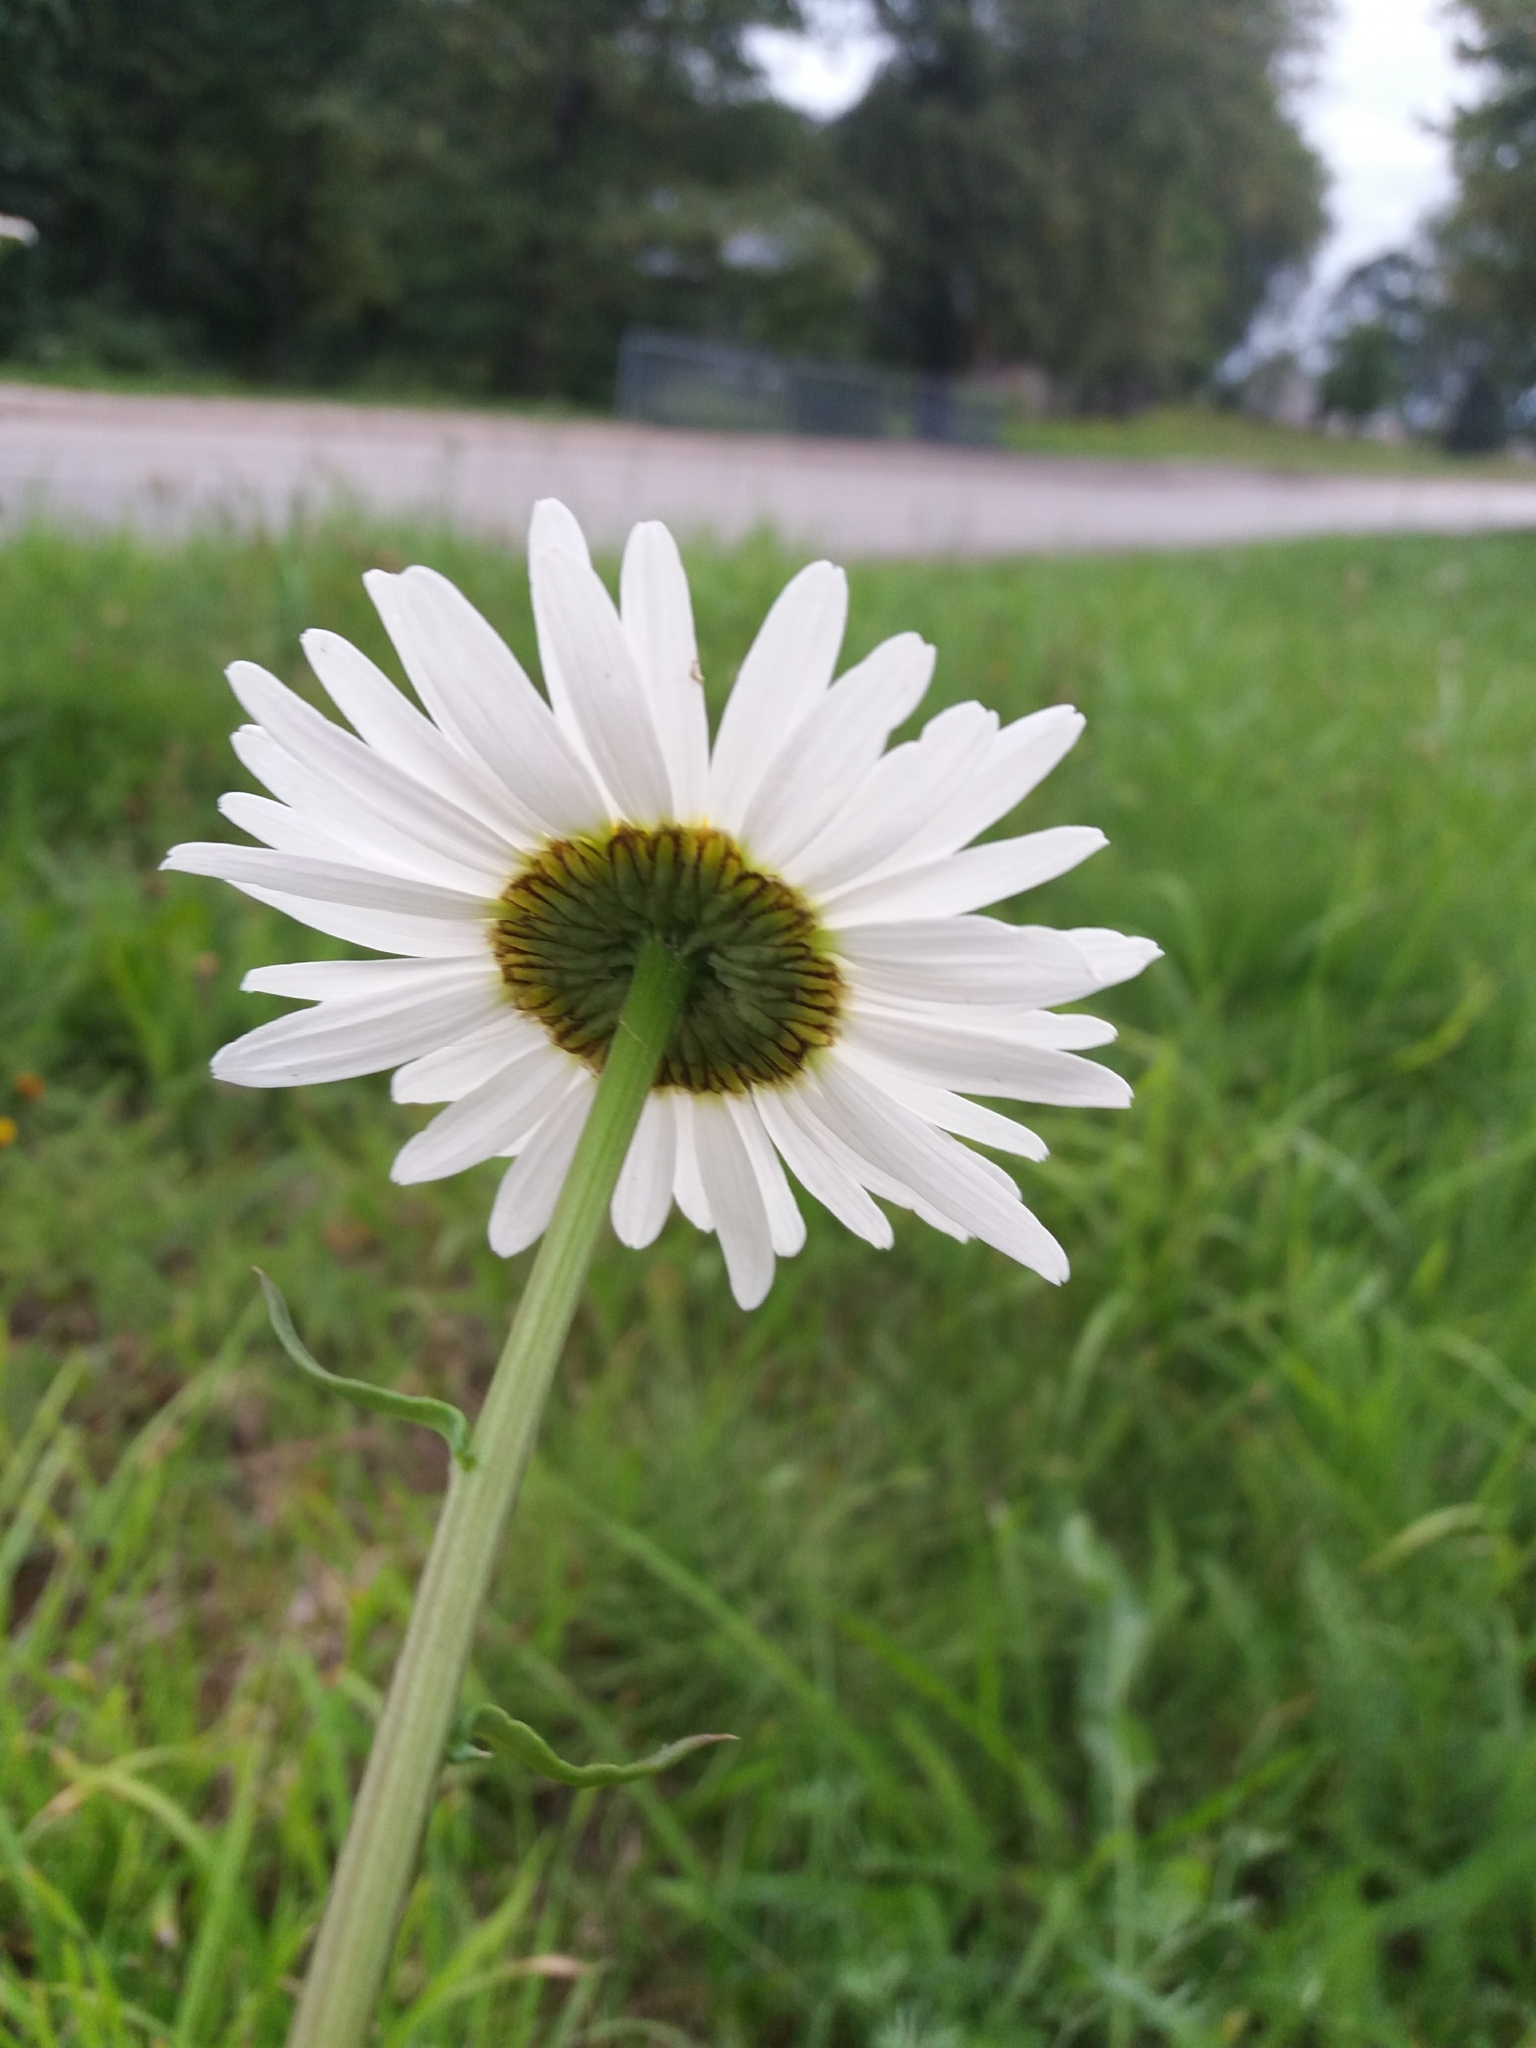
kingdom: Plantae
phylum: Tracheophyta
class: Magnoliopsida
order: Asterales
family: Asteraceae
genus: Leucanthemum
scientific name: Leucanthemum vulgare
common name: Oxeye daisy
